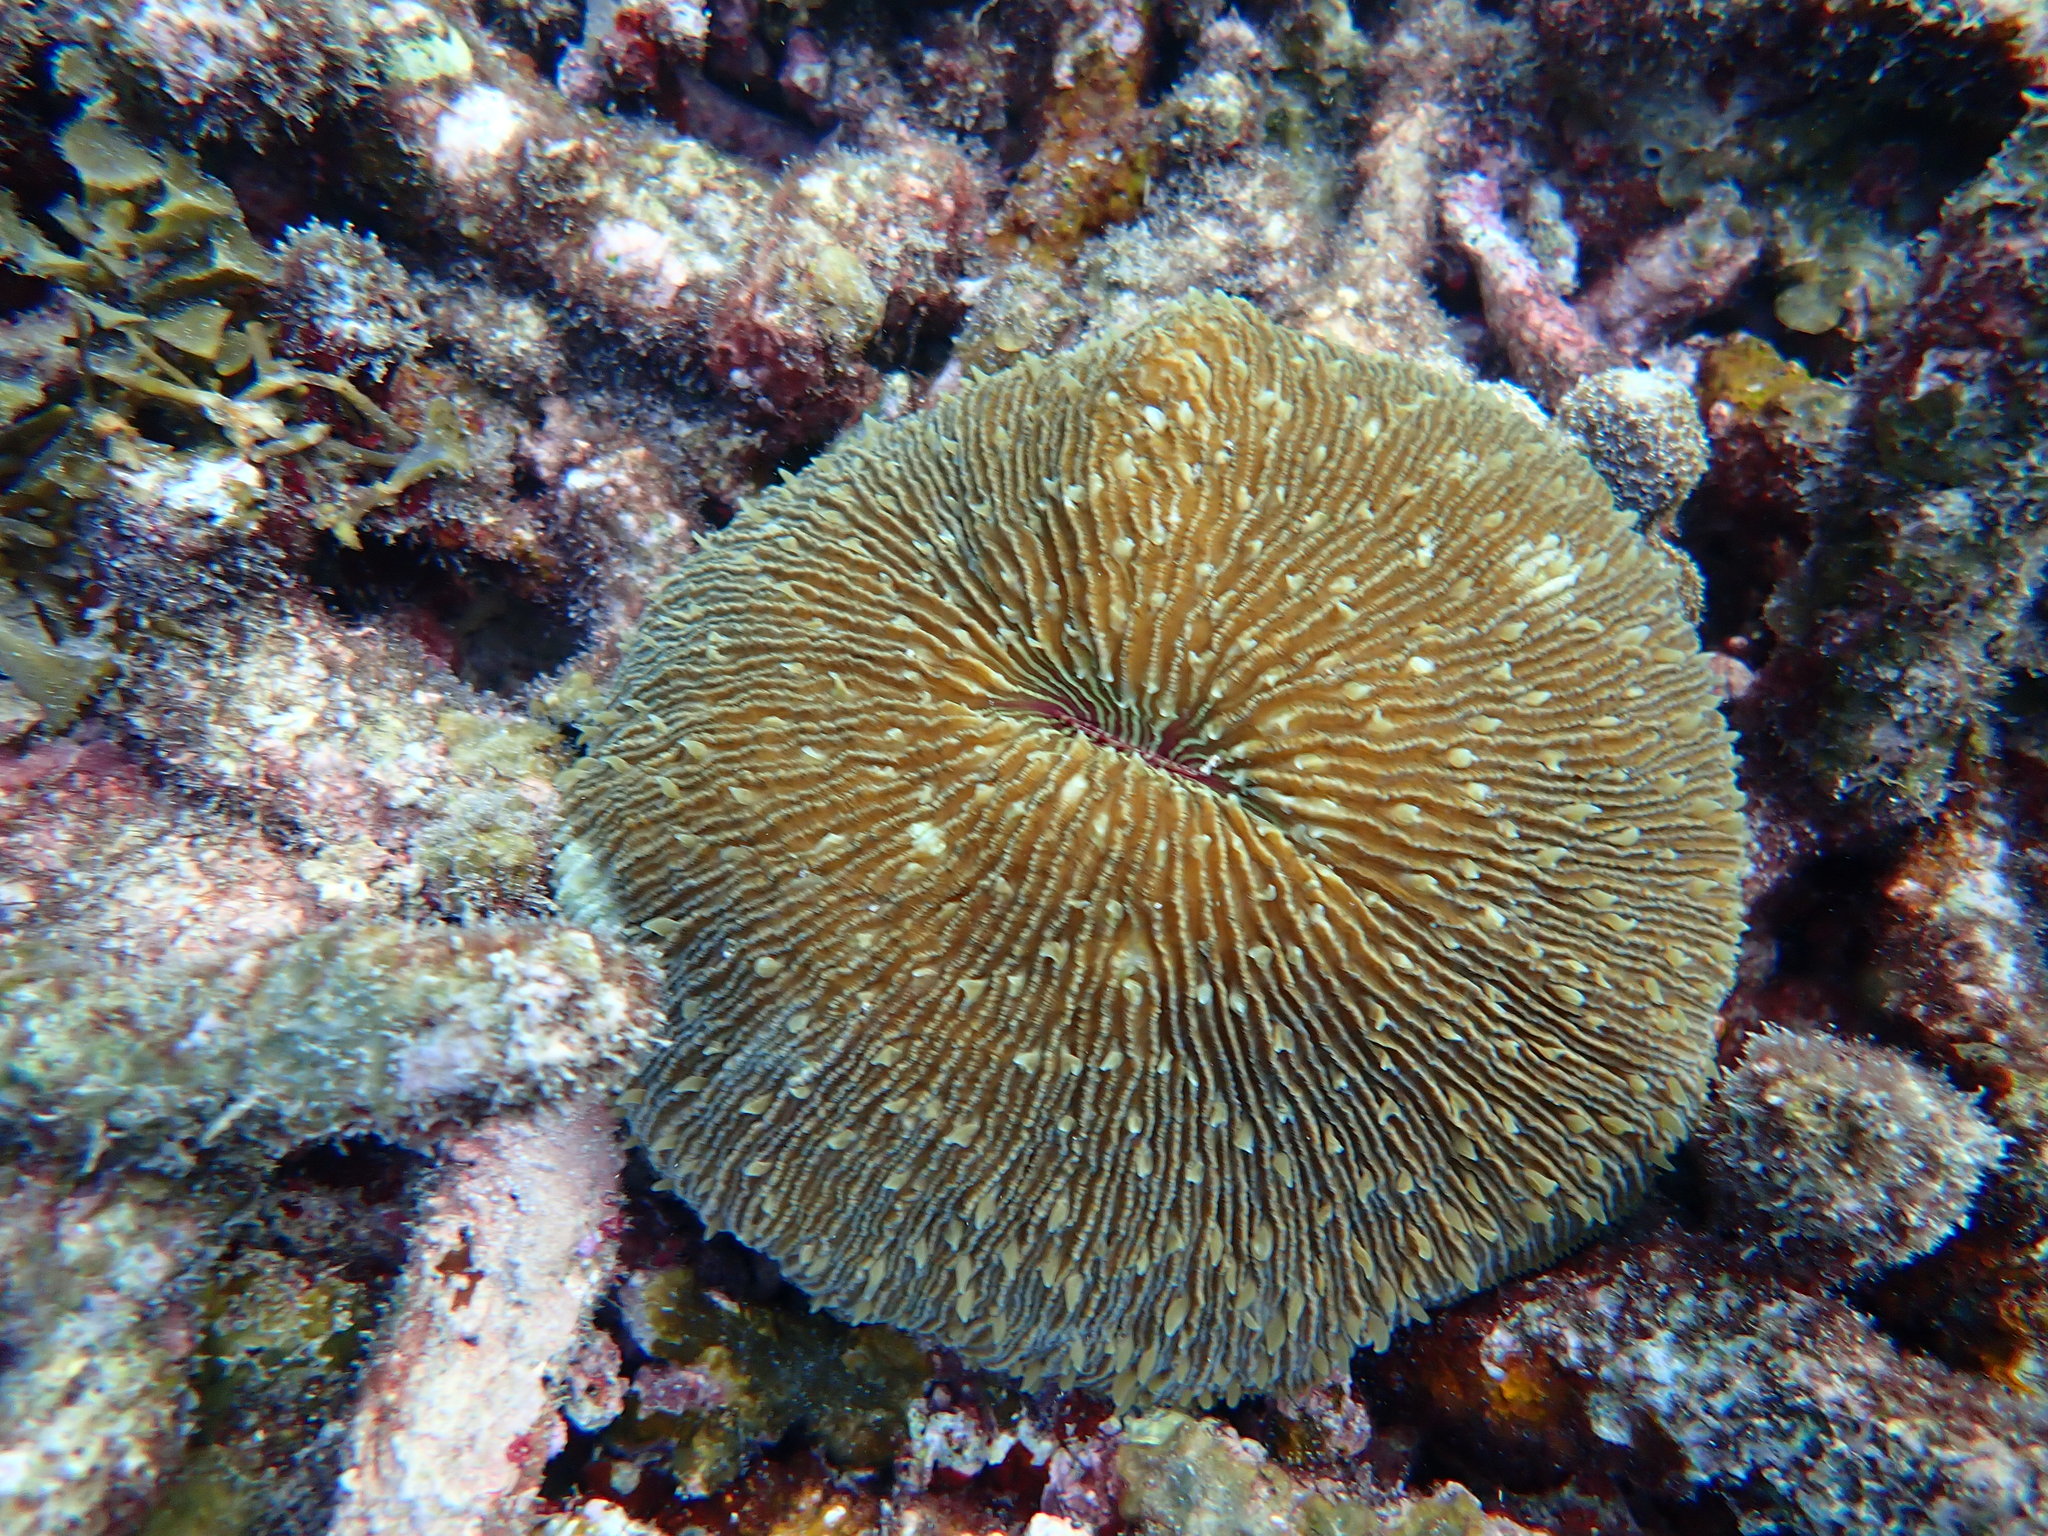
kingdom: Animalia
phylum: Cnidaria
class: Anthozoa
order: Scleractinia
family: Fungiidae
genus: Fungia
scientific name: Fungia fungites
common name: Mushroom coral
